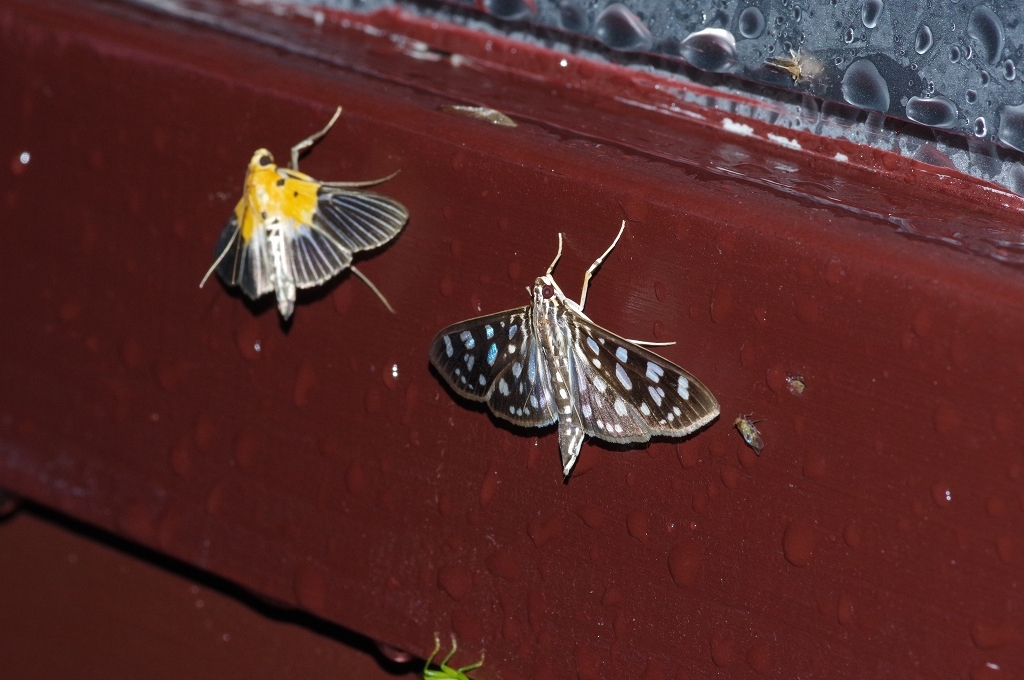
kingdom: Animalia
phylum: Arthropoda
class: Insecta
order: Lepidoptera
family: Crambidae
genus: Pygospila
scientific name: Pygospila tyres
